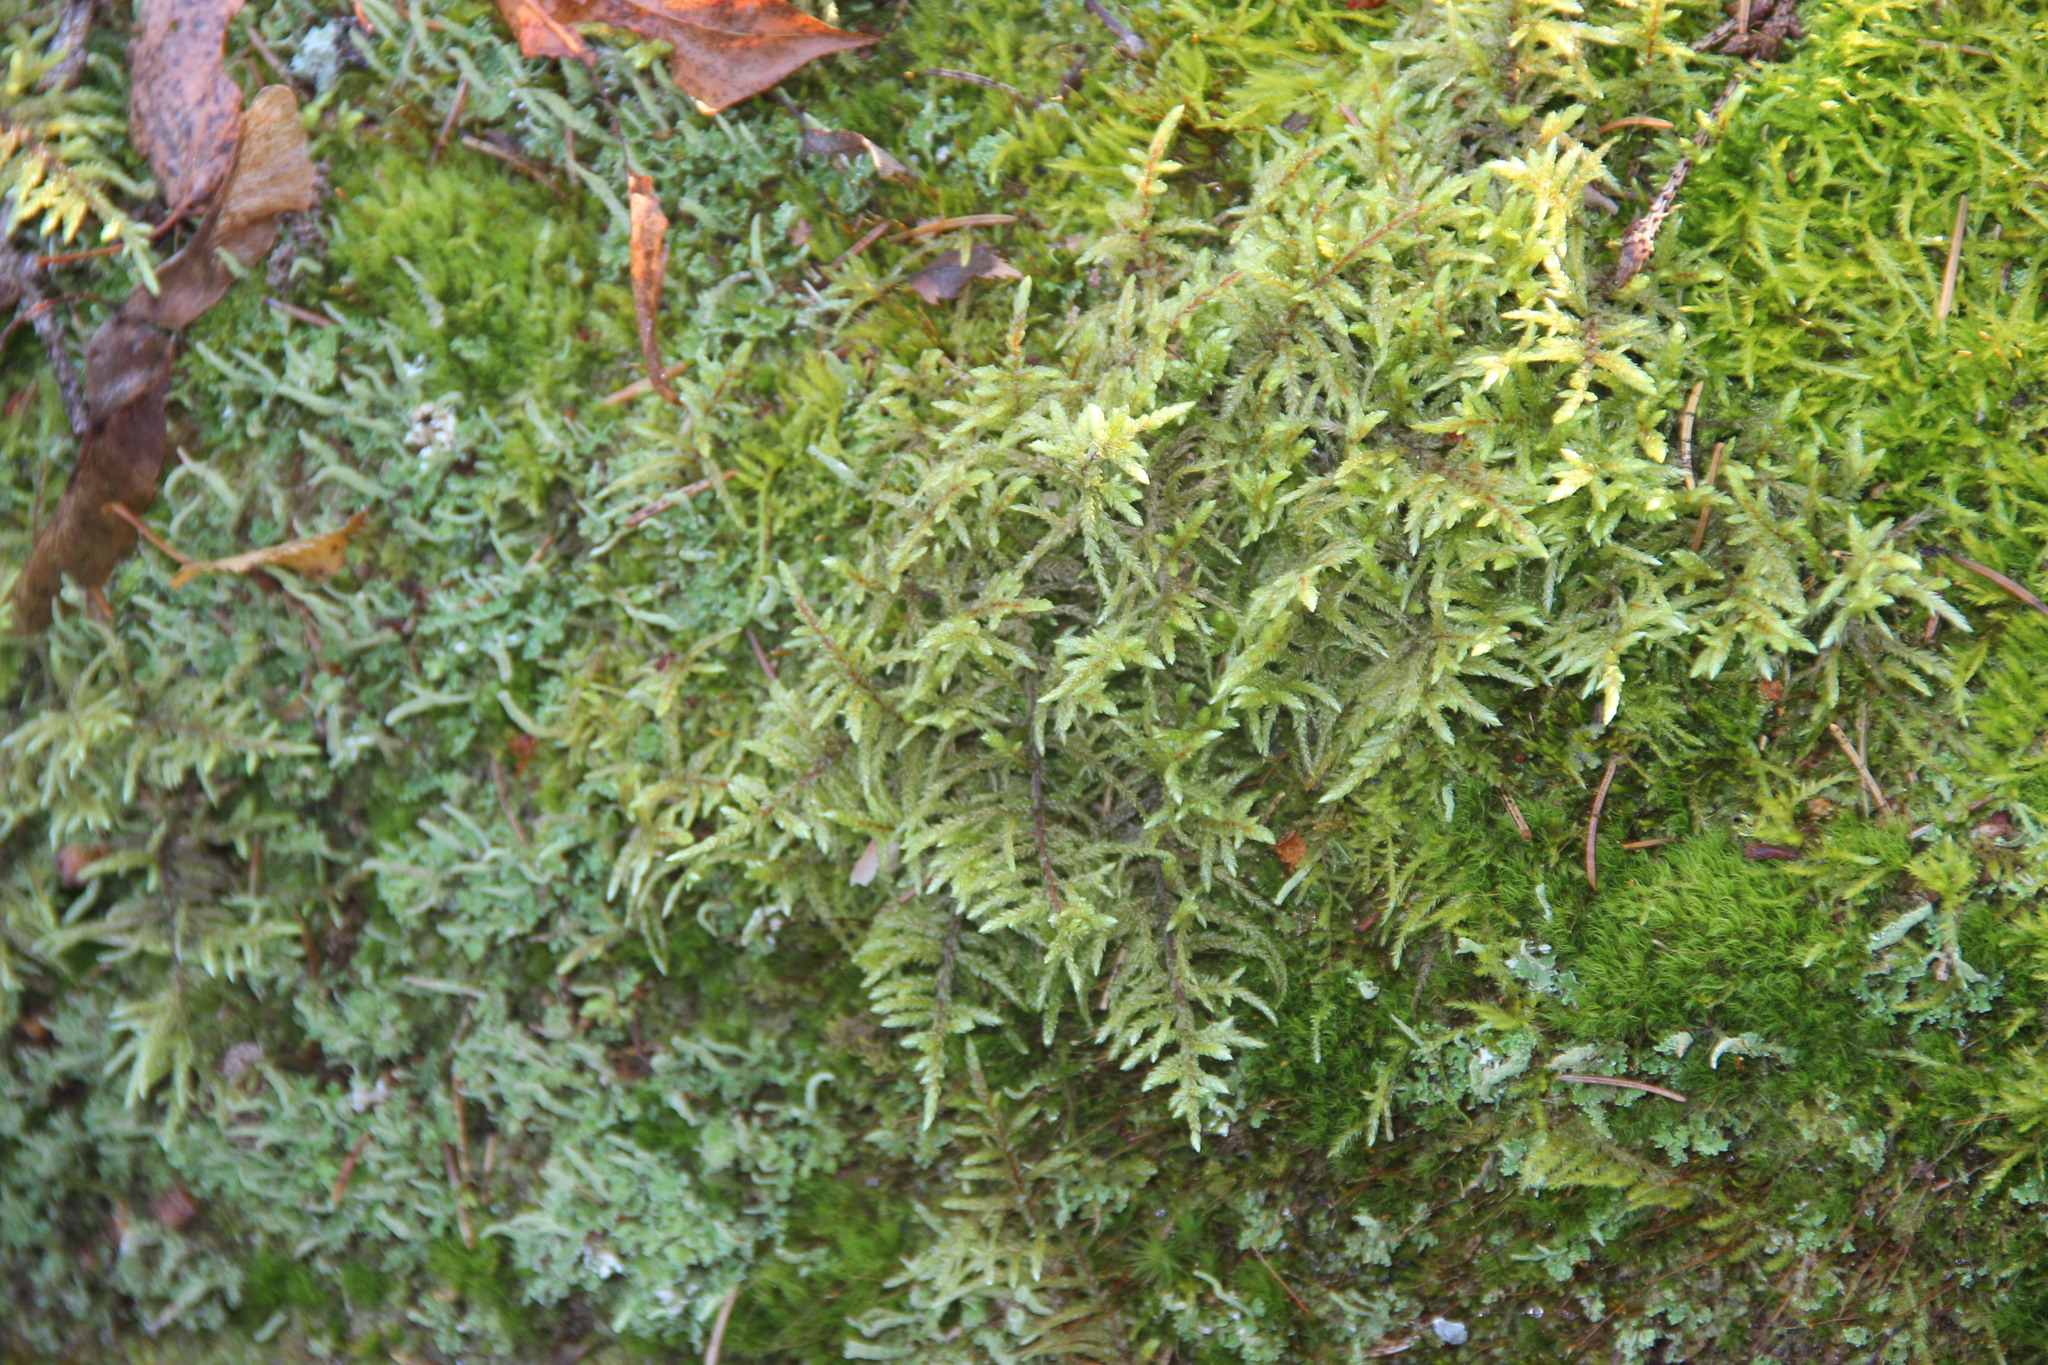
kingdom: Plantae
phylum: Bryophyta
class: Bryopsida
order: Hypnales
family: Hylocomiaceae
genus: Pleurozium
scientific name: Pleurozium schreberi
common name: Red-stemmed feather moss
